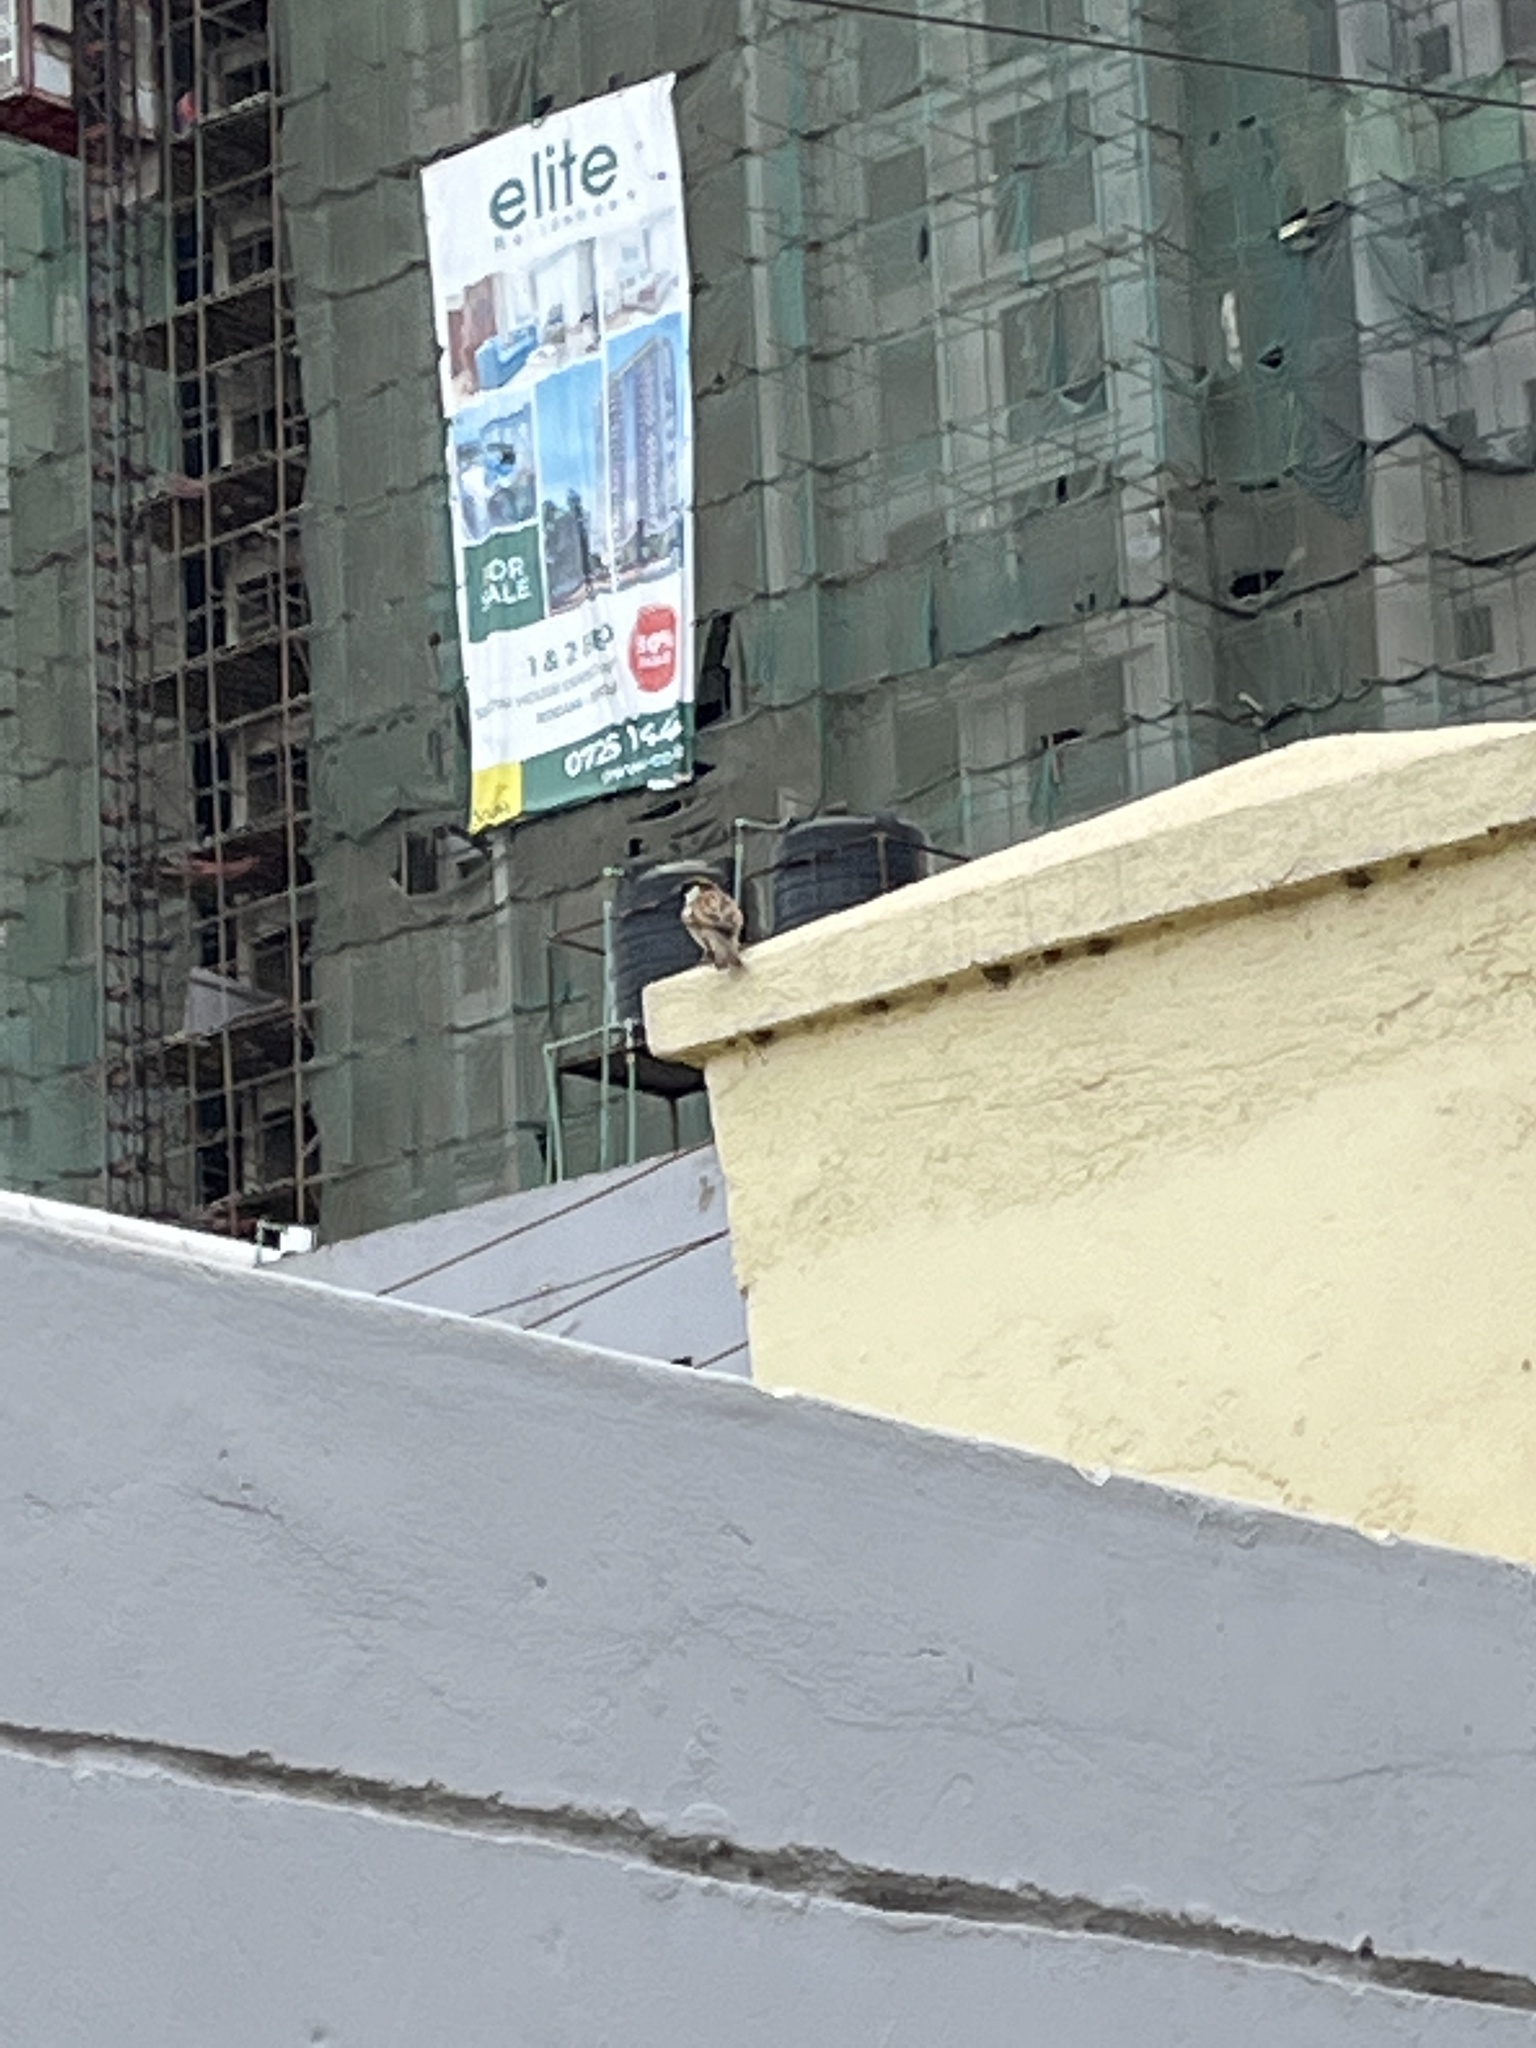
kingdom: Animalia
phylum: Chordata
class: Aves
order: Passeriformes
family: Passeridae
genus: Passer
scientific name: Passer domesticus
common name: House sparrow
